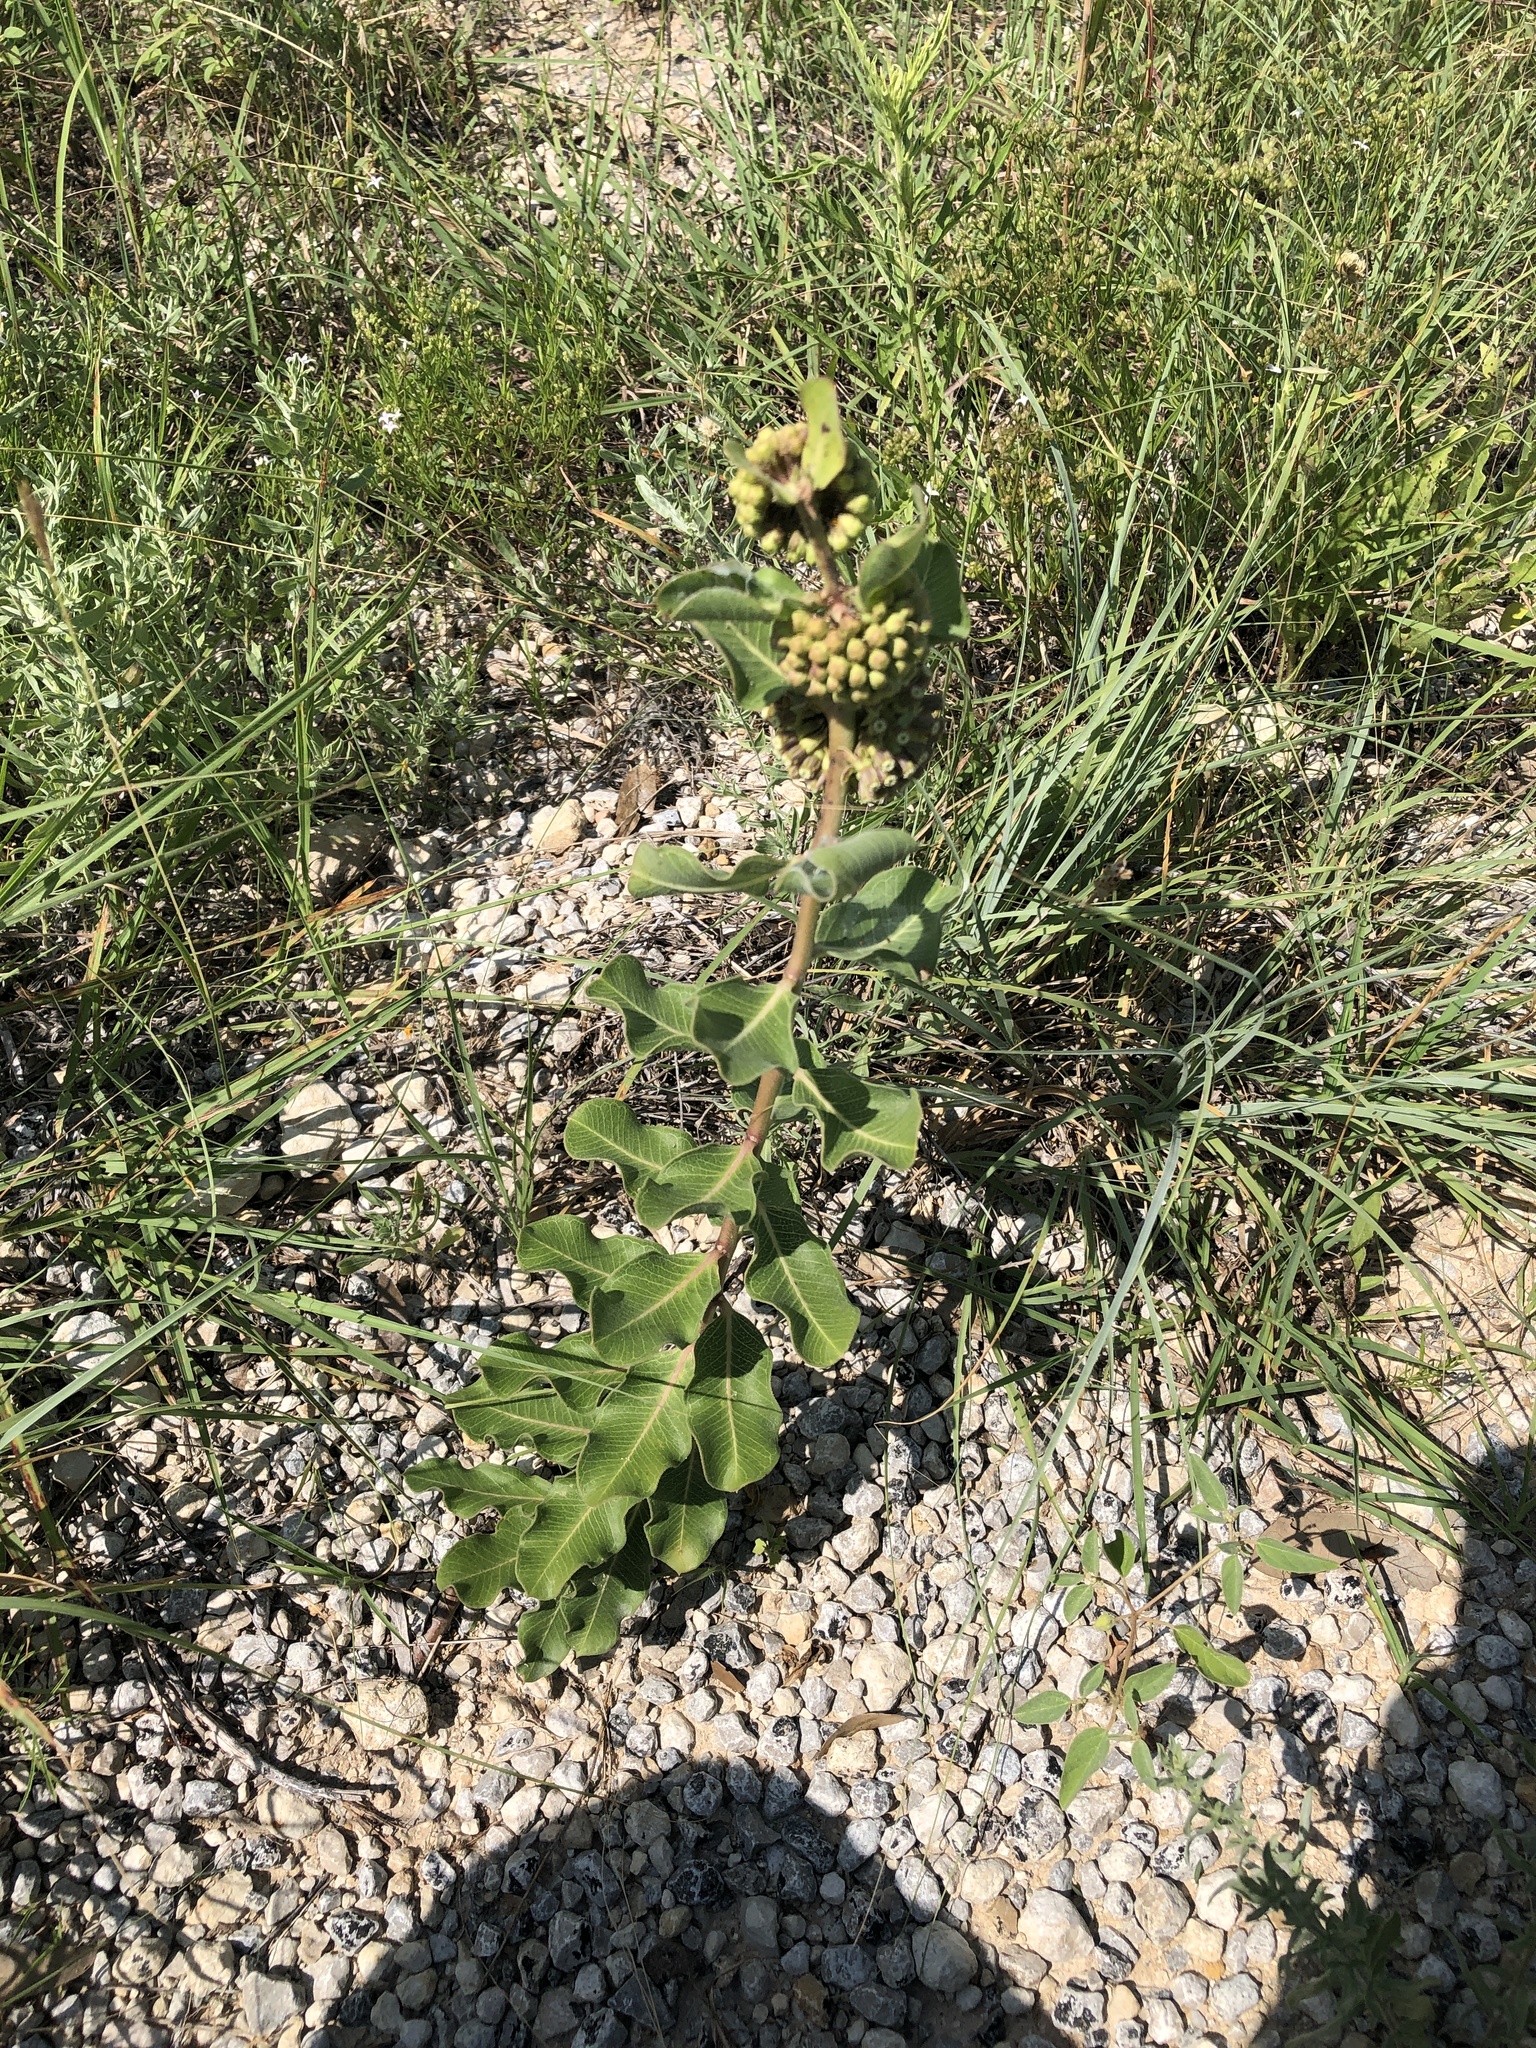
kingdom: Plantae
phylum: Tracheophyta
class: Magnoliopsida
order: Gentianales
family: Apocynaceae
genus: Asclepias
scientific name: Asclepias viridiflora
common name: Green comet milkweed
